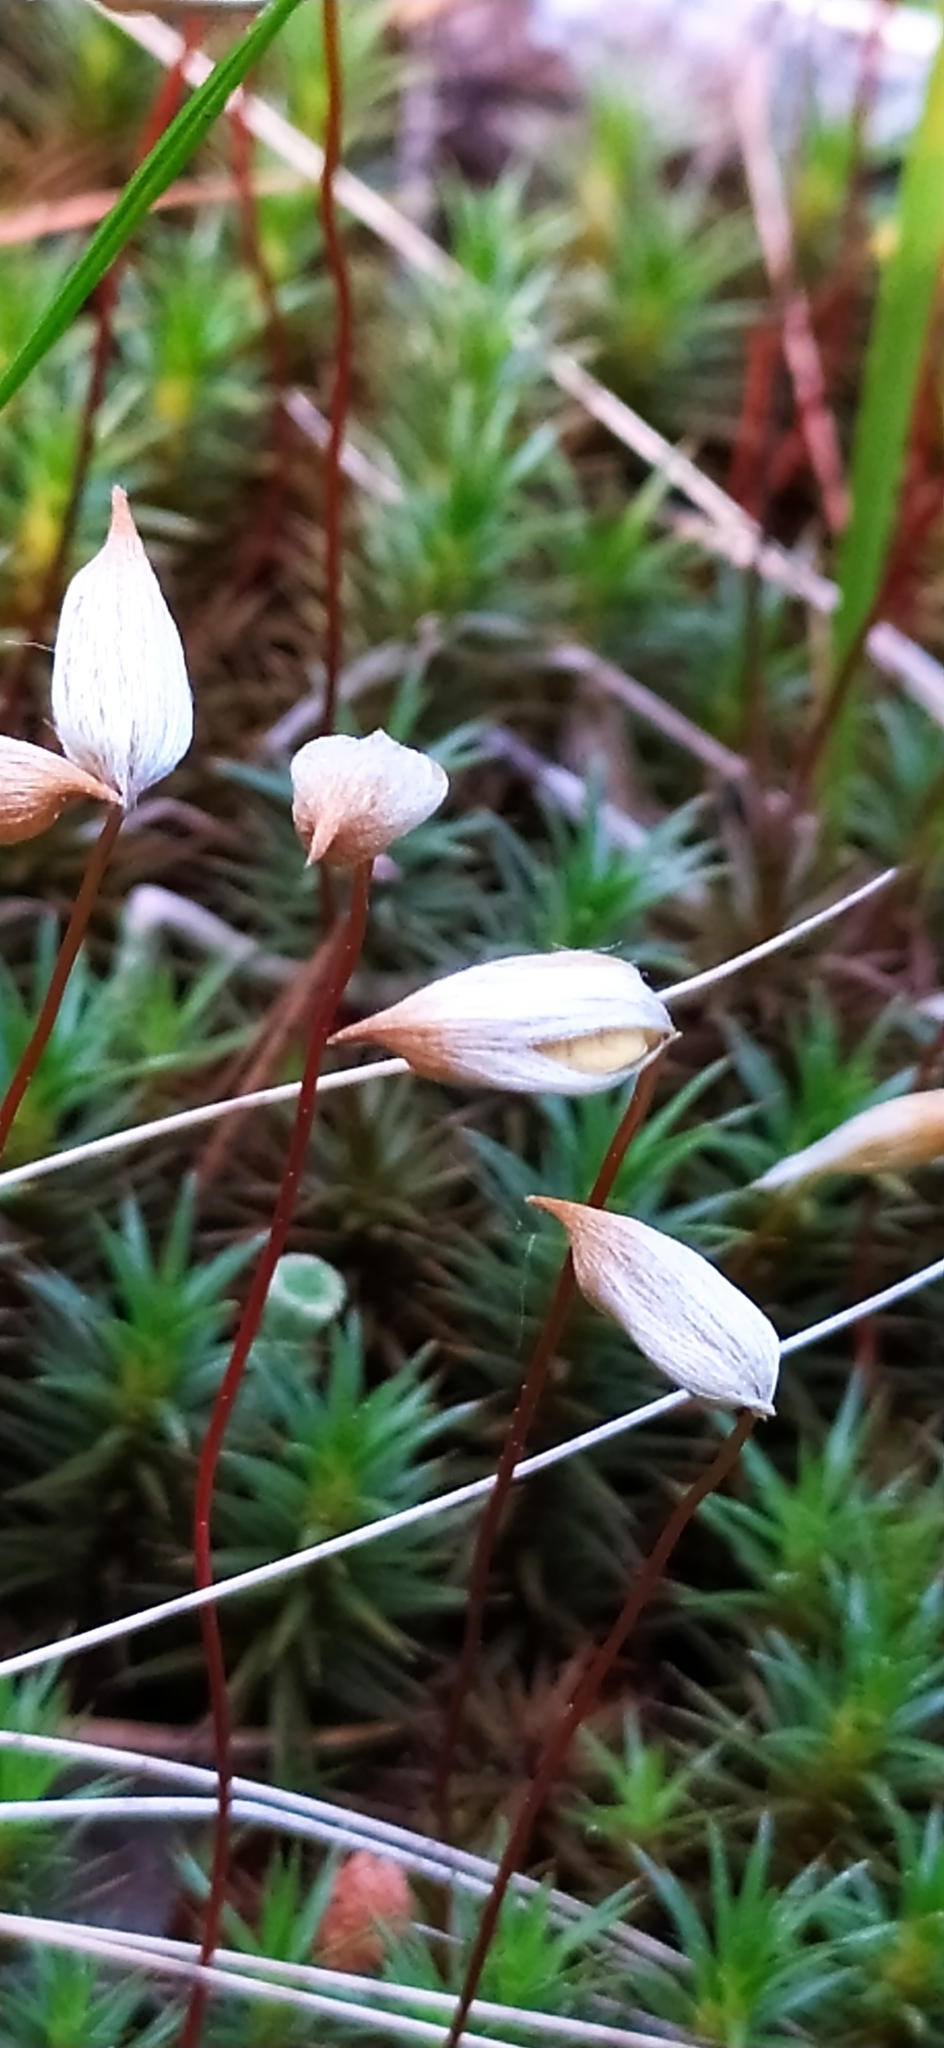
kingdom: Plantae
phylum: Bryophyta
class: Polytrichopsida
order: Polytrichales
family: Polytrichaceae
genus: Polytrichum
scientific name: Polytrichum piliferum
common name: Bristly haircap
